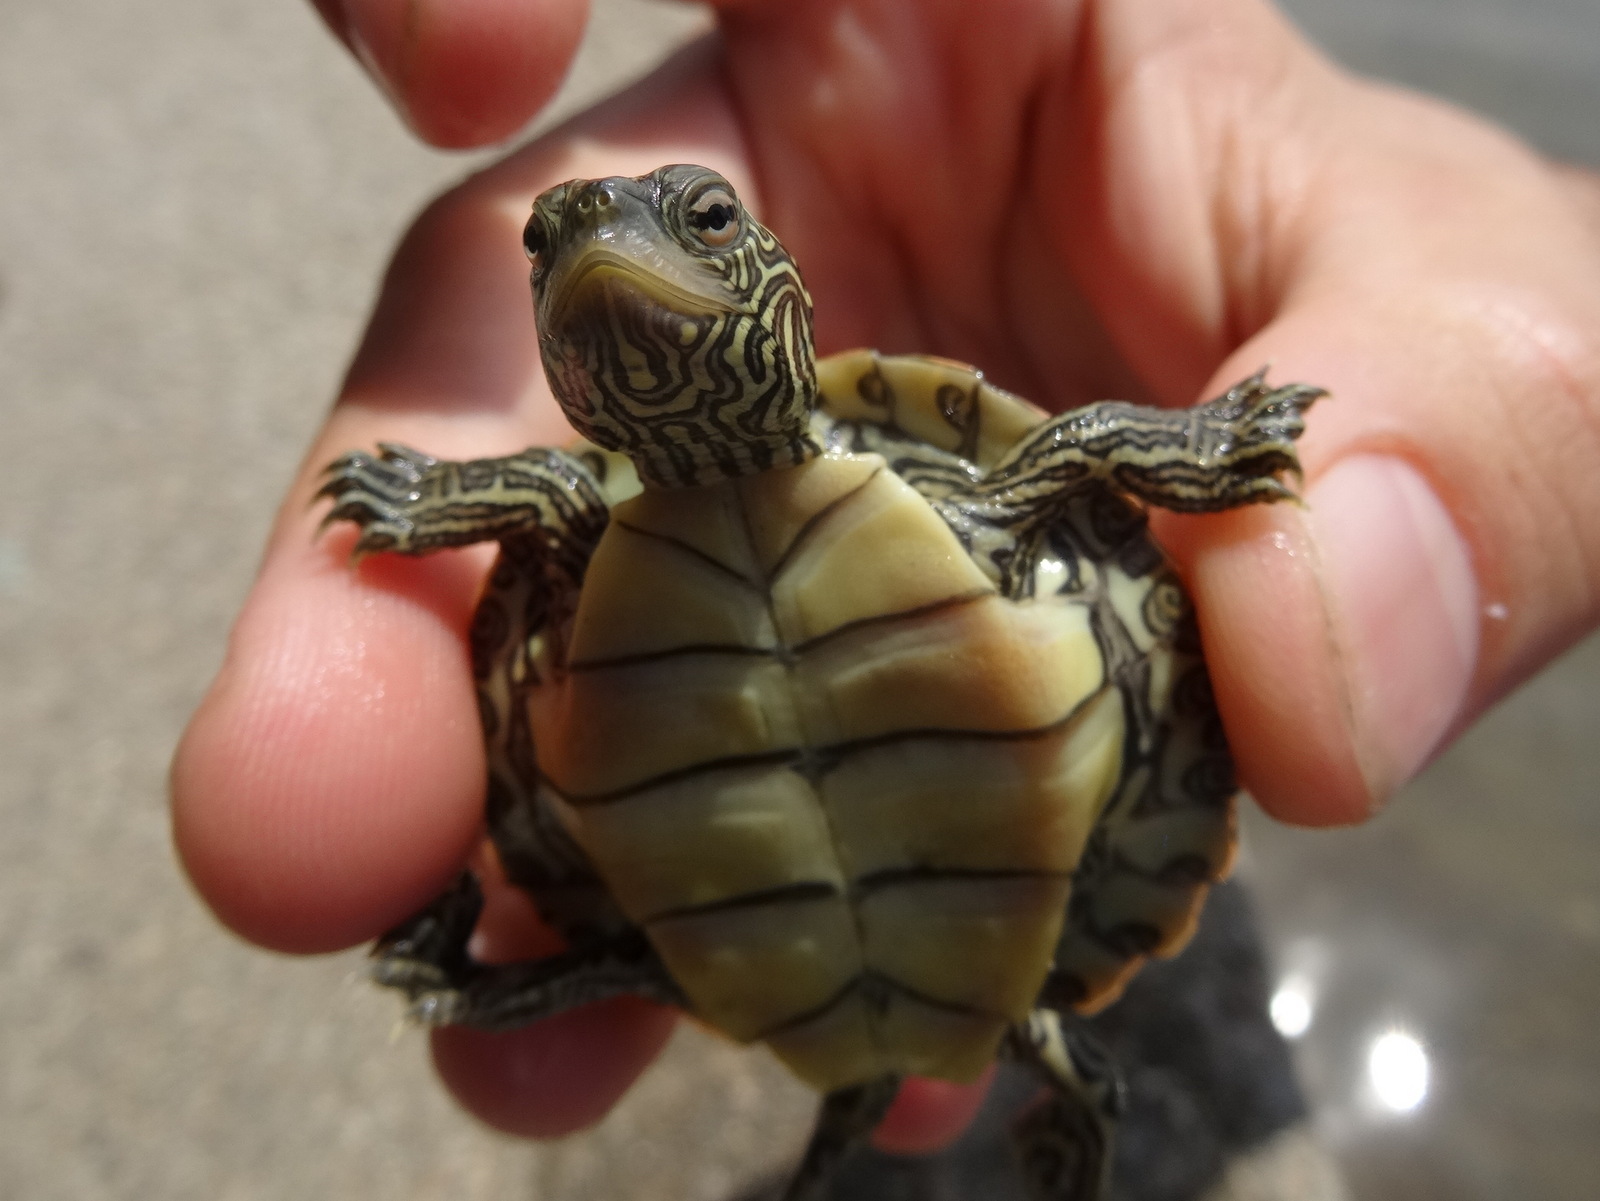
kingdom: Animalia
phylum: Chordata
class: Testudines
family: Emydidae
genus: Graptemys
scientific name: Graptemys geographica
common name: Common map turtle
